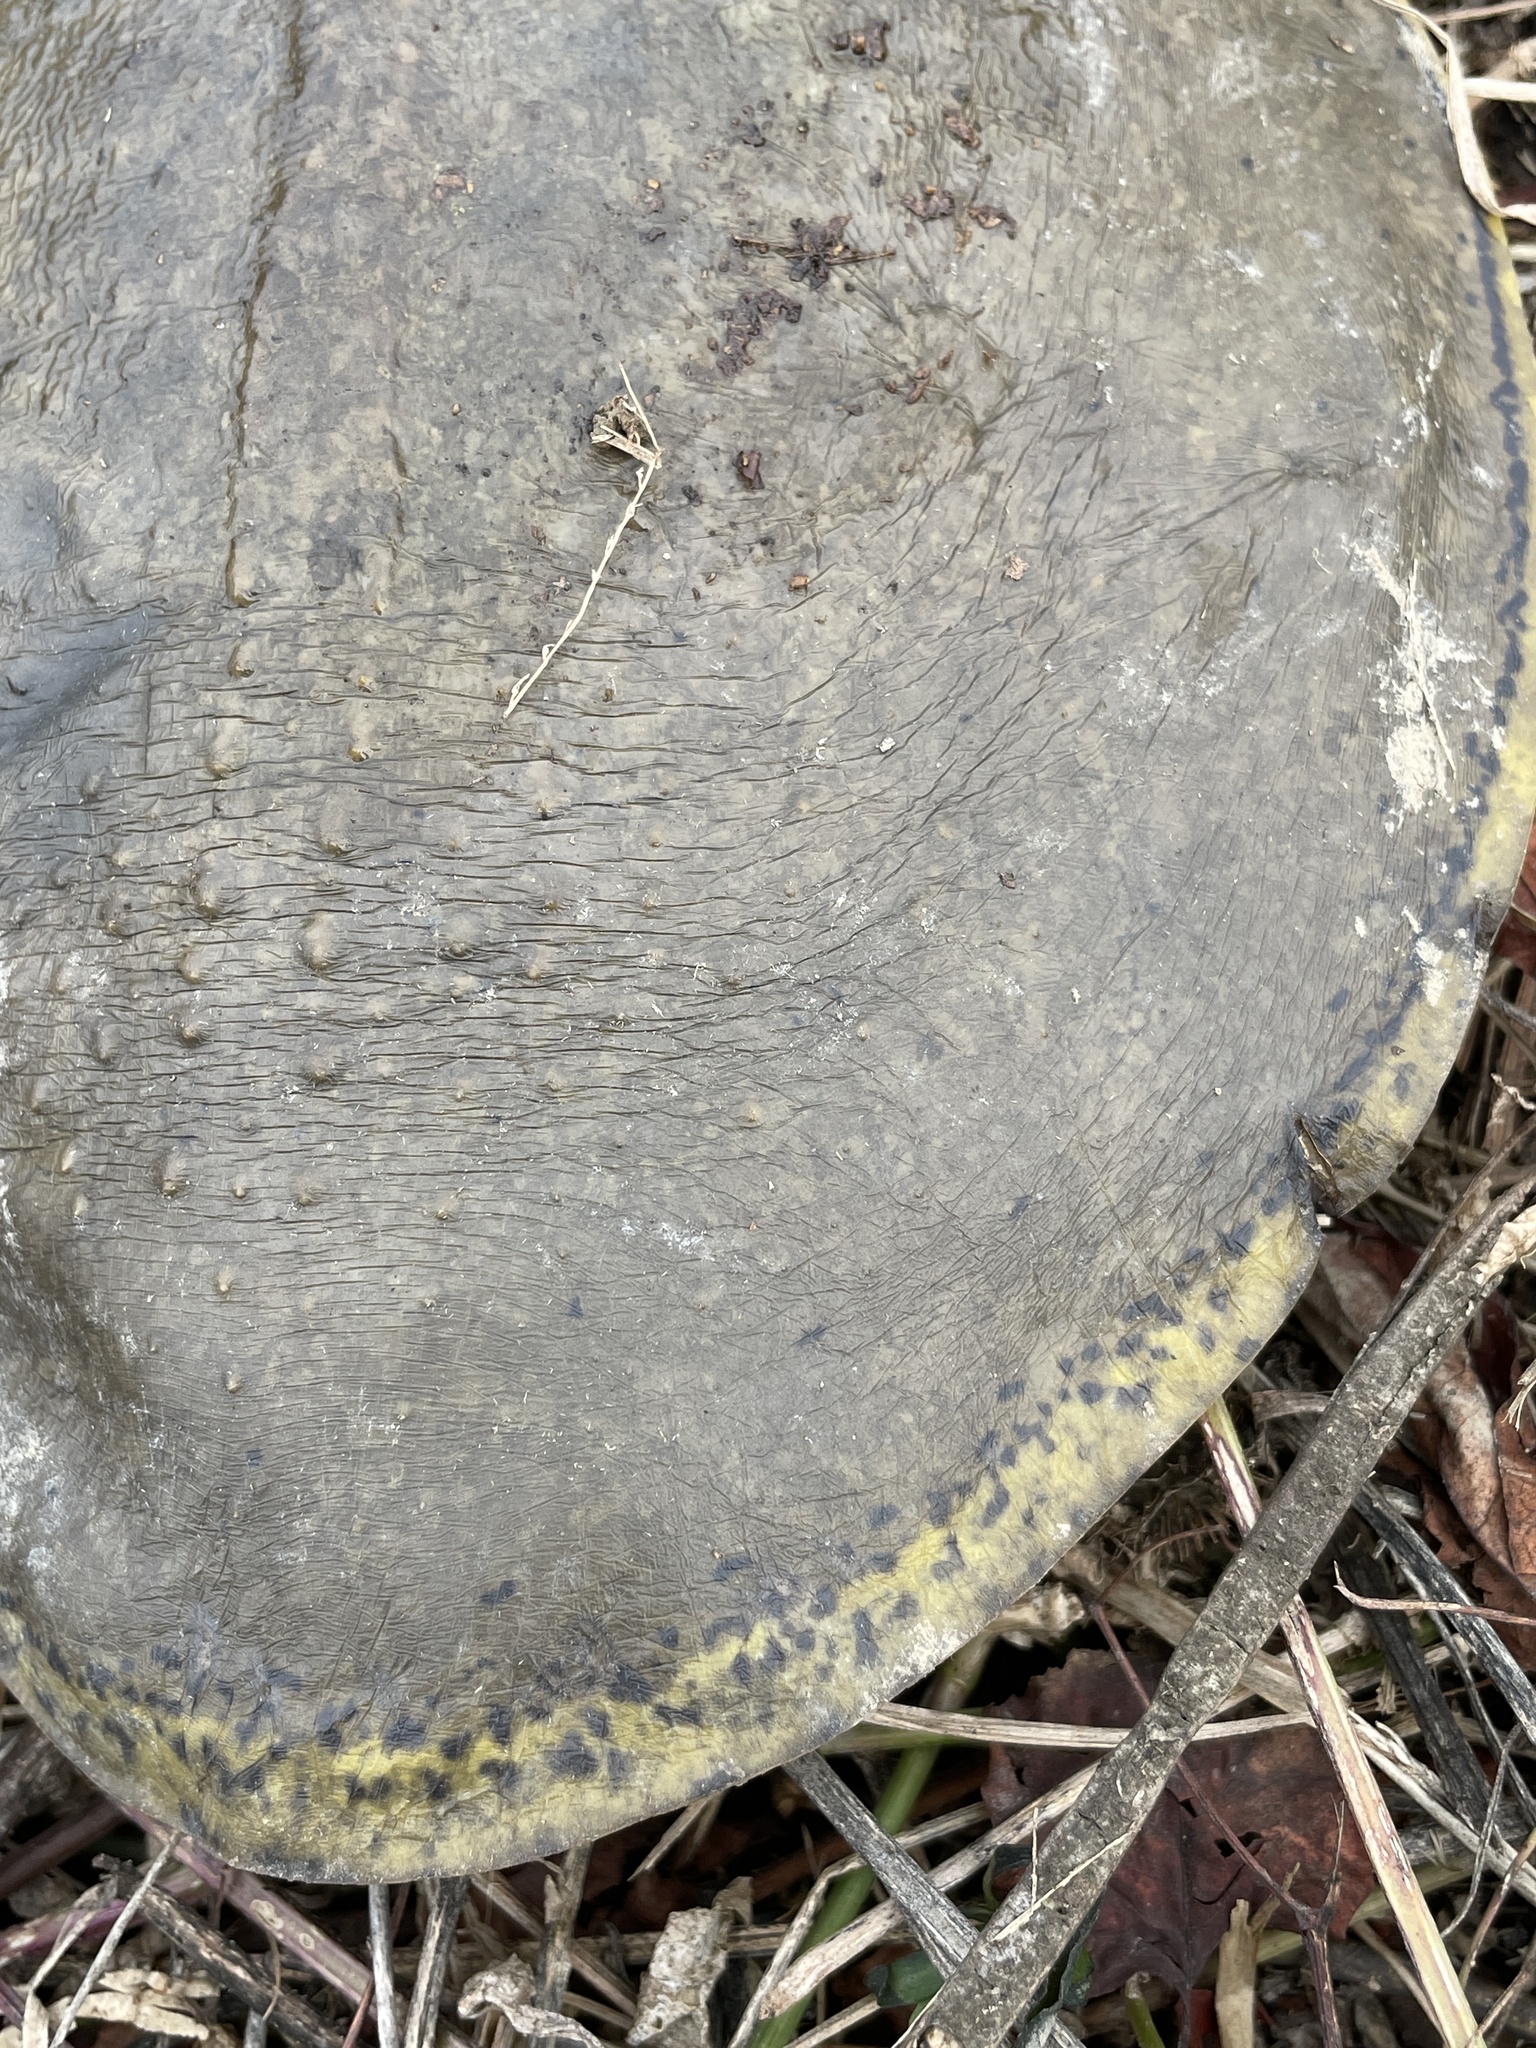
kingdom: Animalia
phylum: Chordata
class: Testudines
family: Trionychidae
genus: Apalone
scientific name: Apalone spinifera
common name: Spiny softshell turtle
